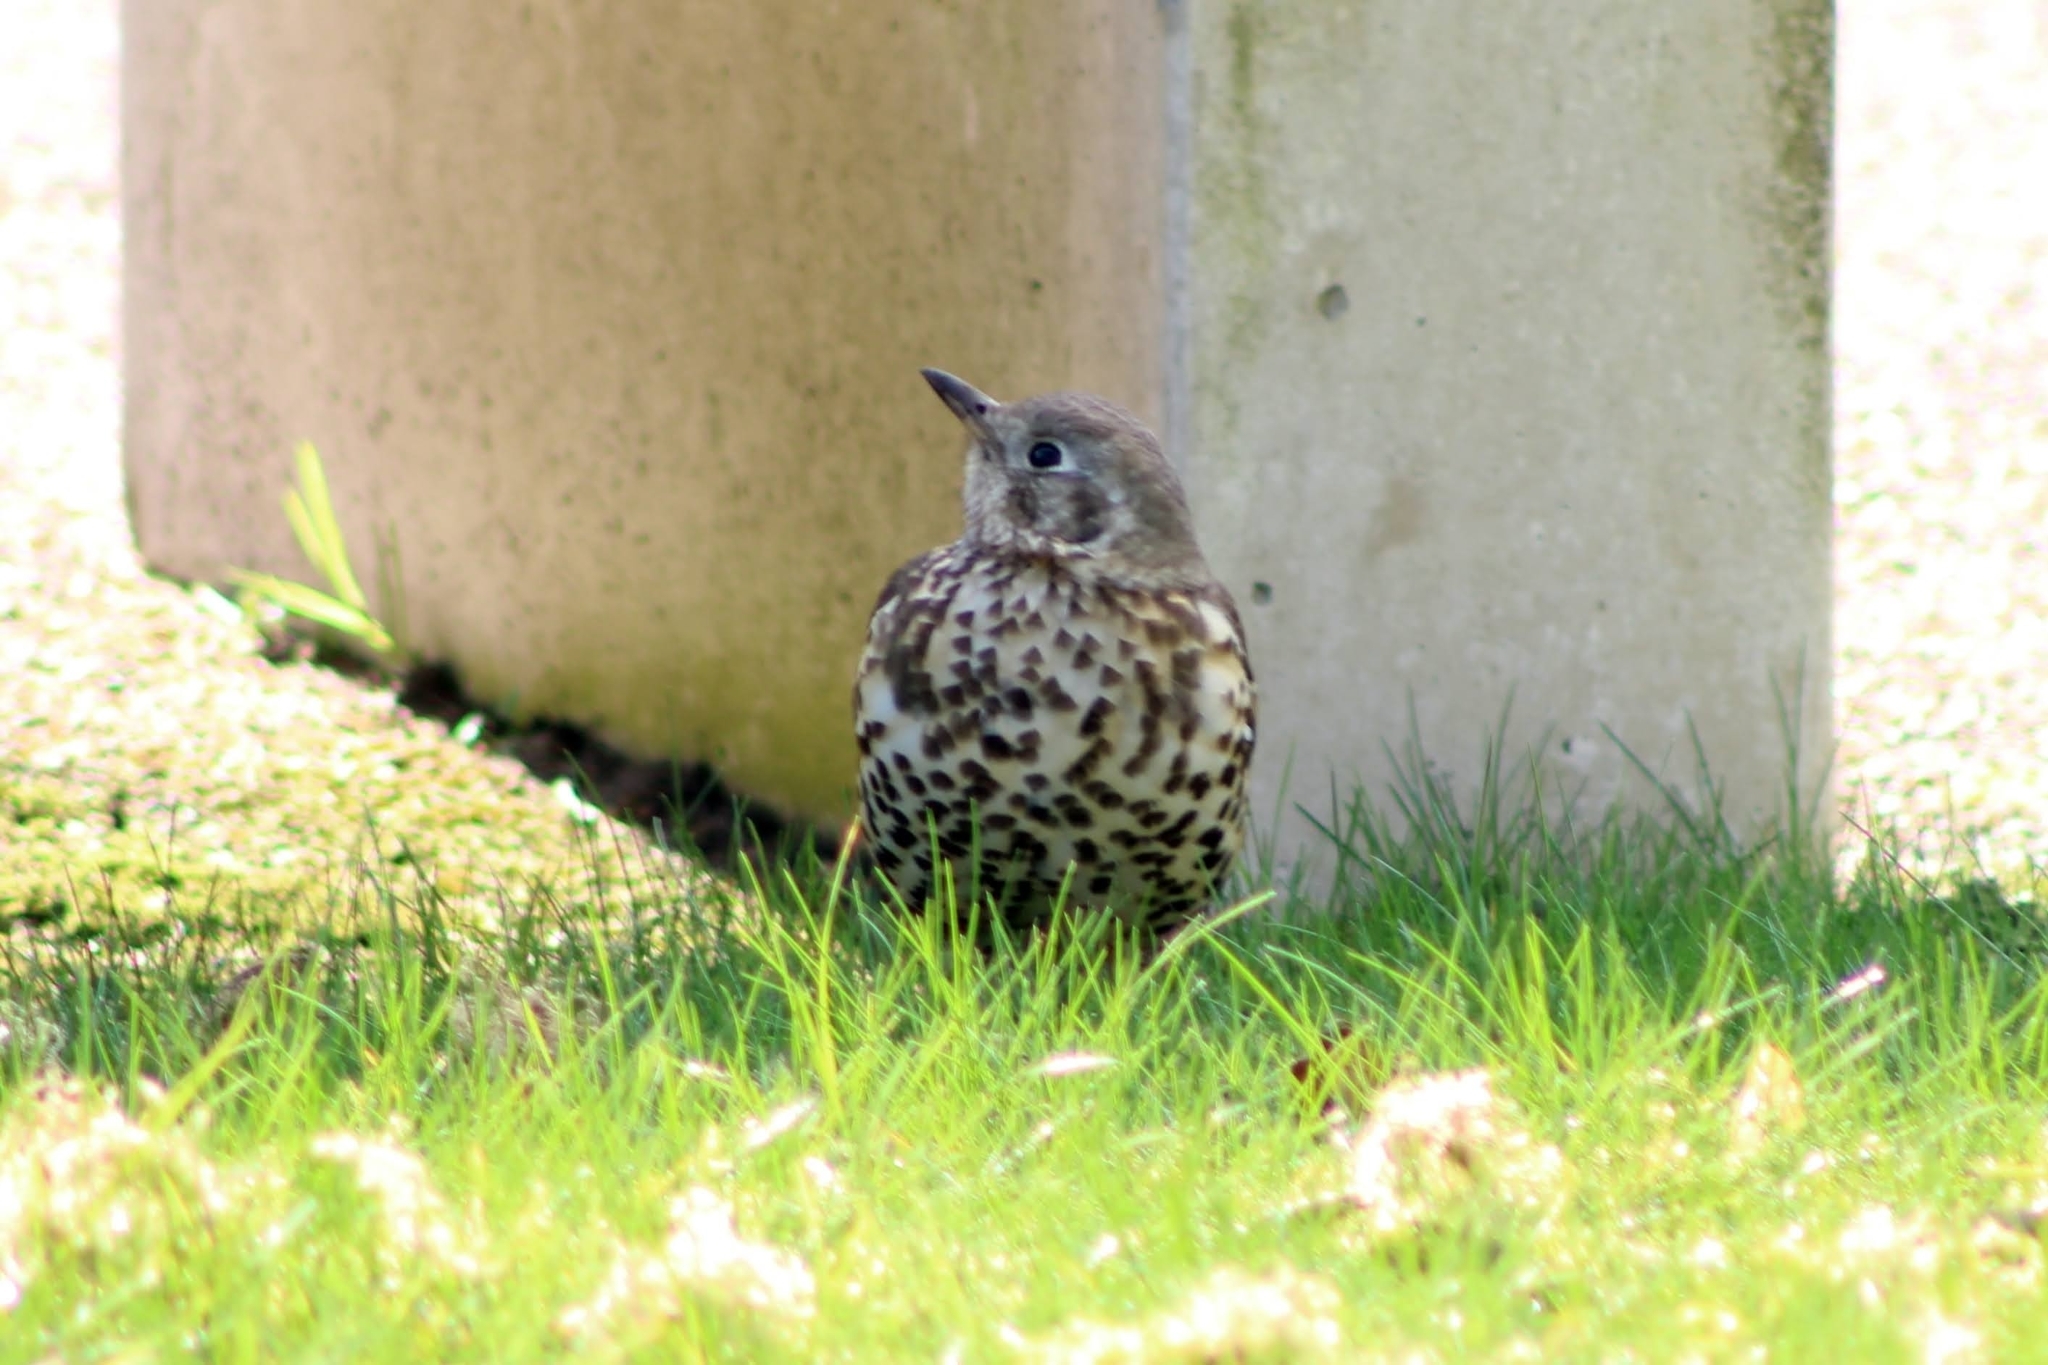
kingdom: Animalia
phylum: Chordata
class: Aves
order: Passeriformes
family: Turdidae
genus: Turdus
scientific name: Turdus viscivorus
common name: Mistle thrush
